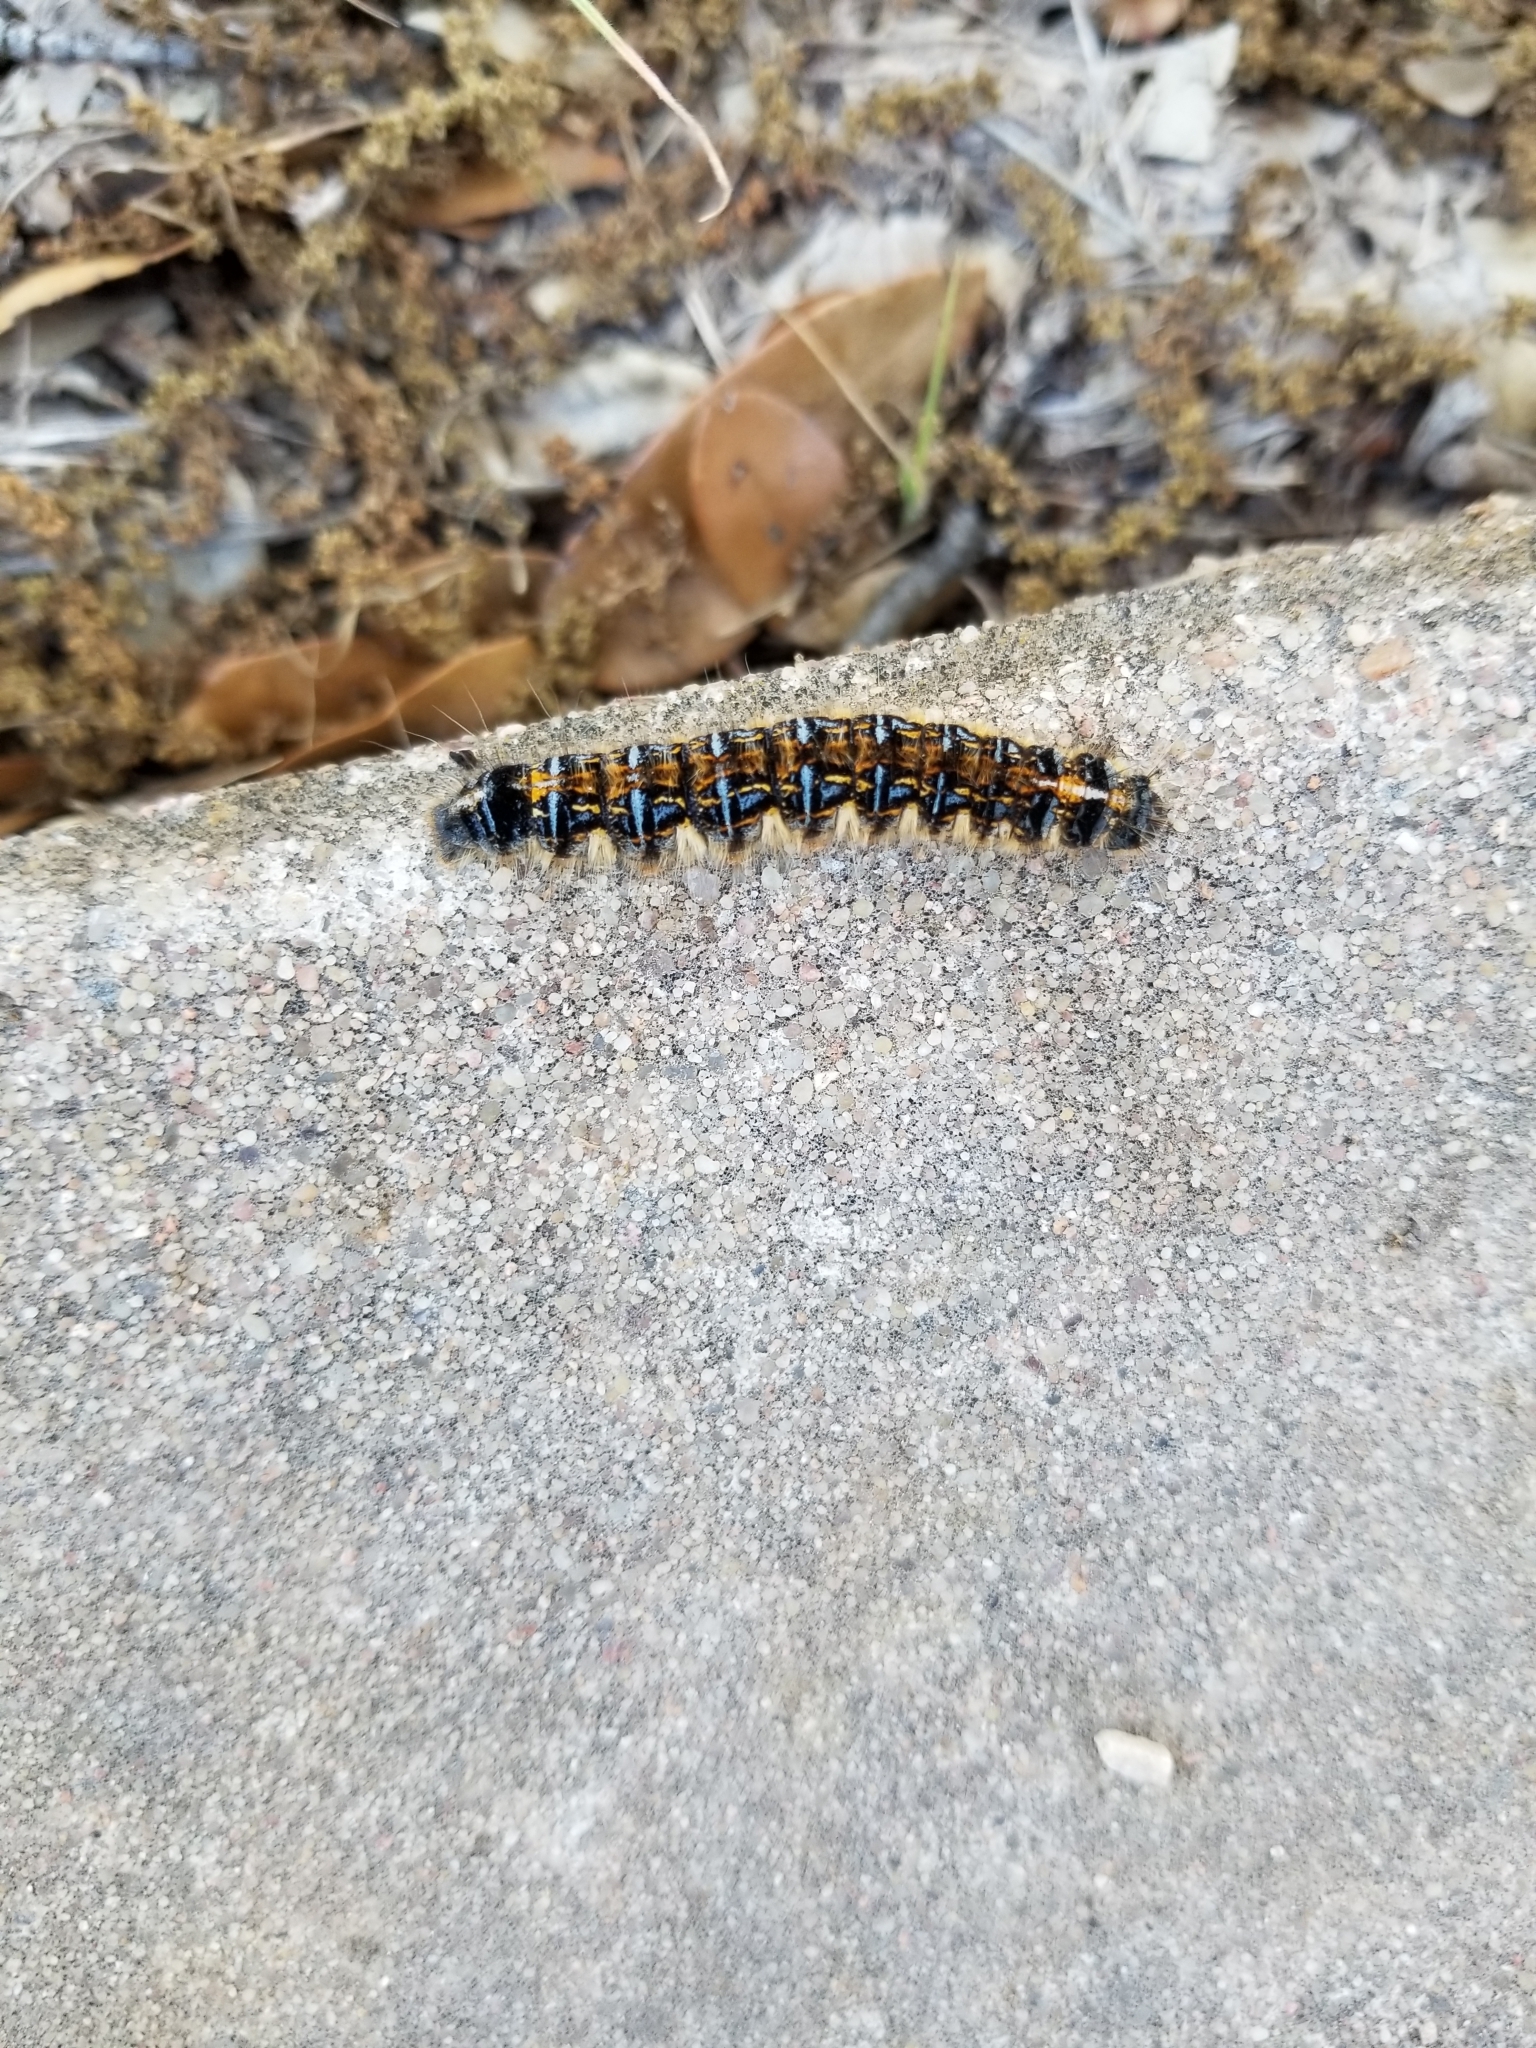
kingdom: Animalia
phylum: Arthropoda
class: Insecta
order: Lepidoptera
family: Lasiocampidae
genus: Malacosoma
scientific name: Malacosoma tigris
